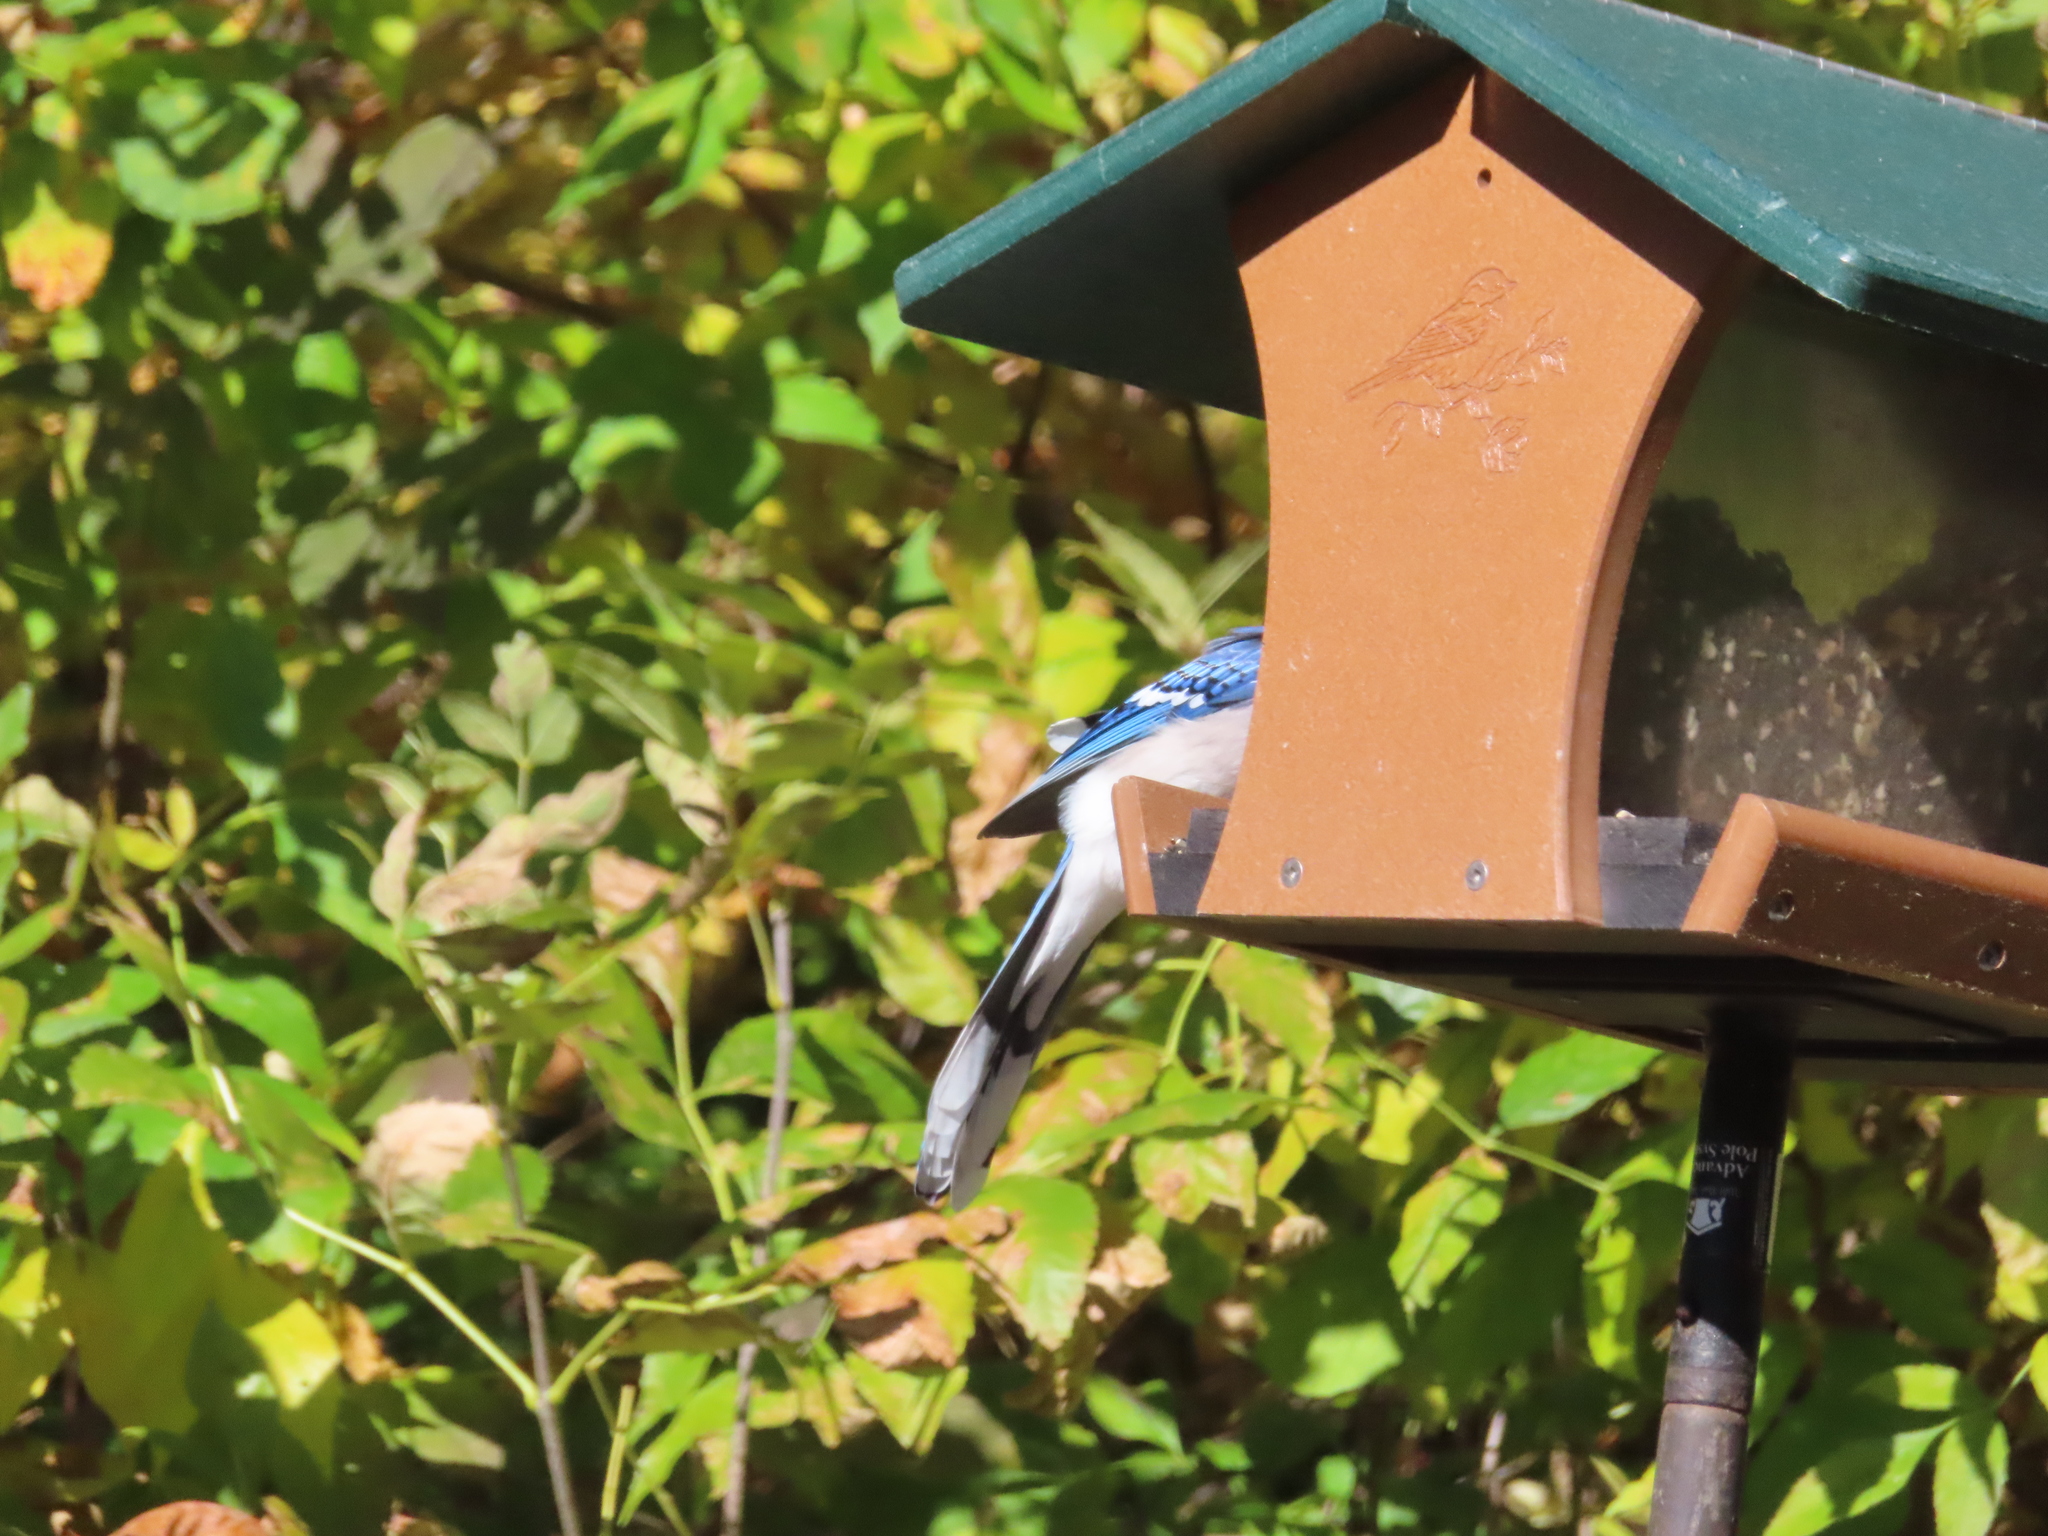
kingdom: Animalia
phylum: Chordata
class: Aves
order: Passeriformes
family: Corvidae
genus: Cyanocitta
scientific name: Cyanocitta cristata
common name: Blue jay
